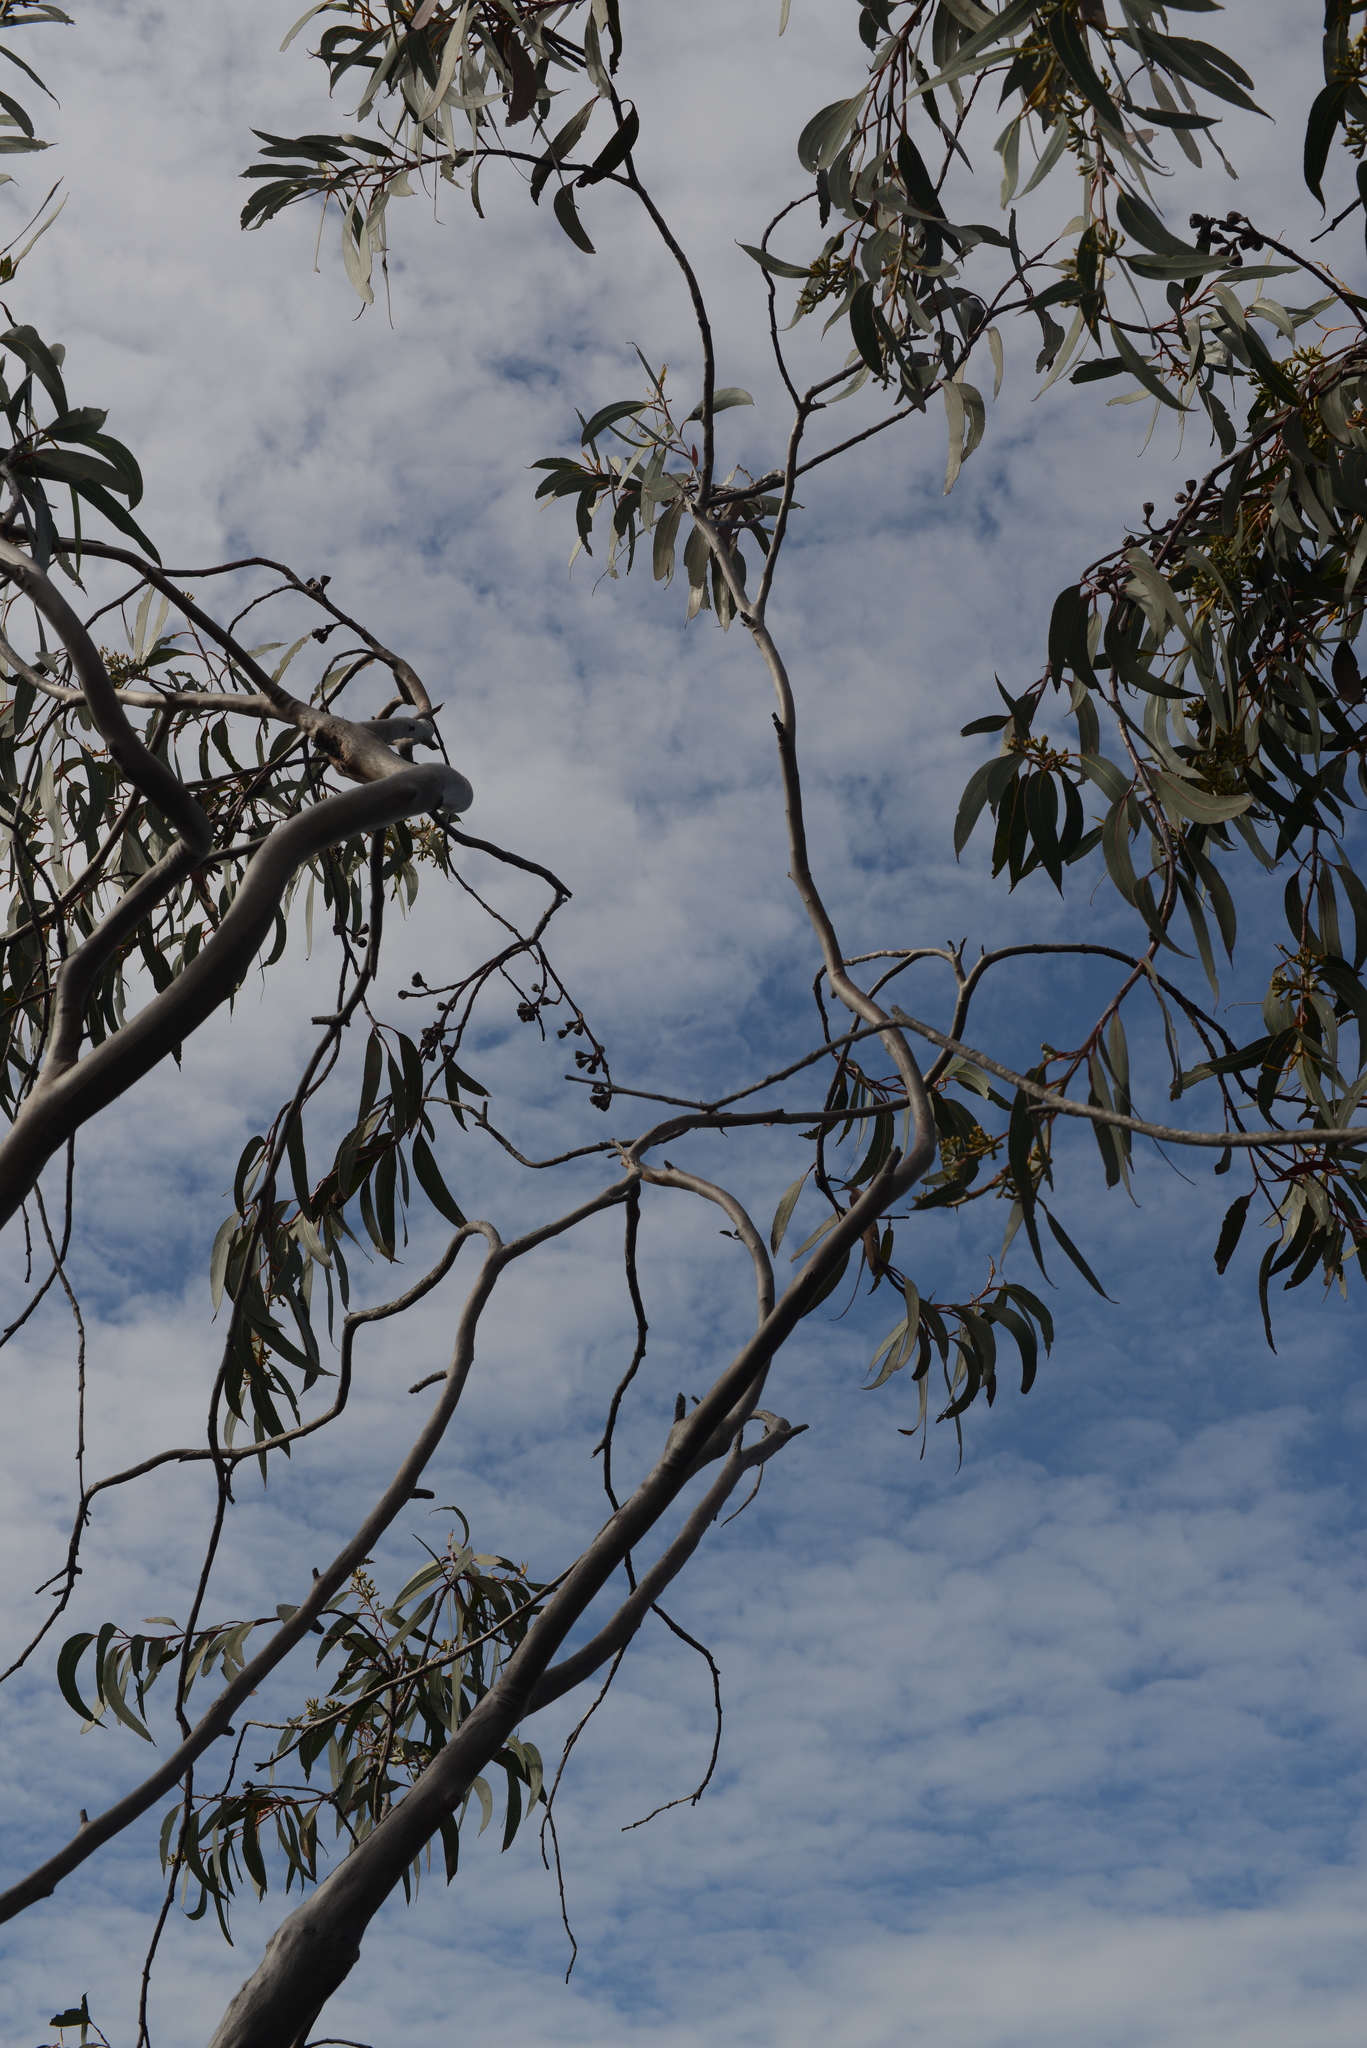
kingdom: Plantae
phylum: Tracheophyta
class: Magnoliopsida
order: Myrtales
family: Myrtaceae
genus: Eucalyptus
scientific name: Eucalyptus luehmanniana
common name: Yellow-top mallee ash
